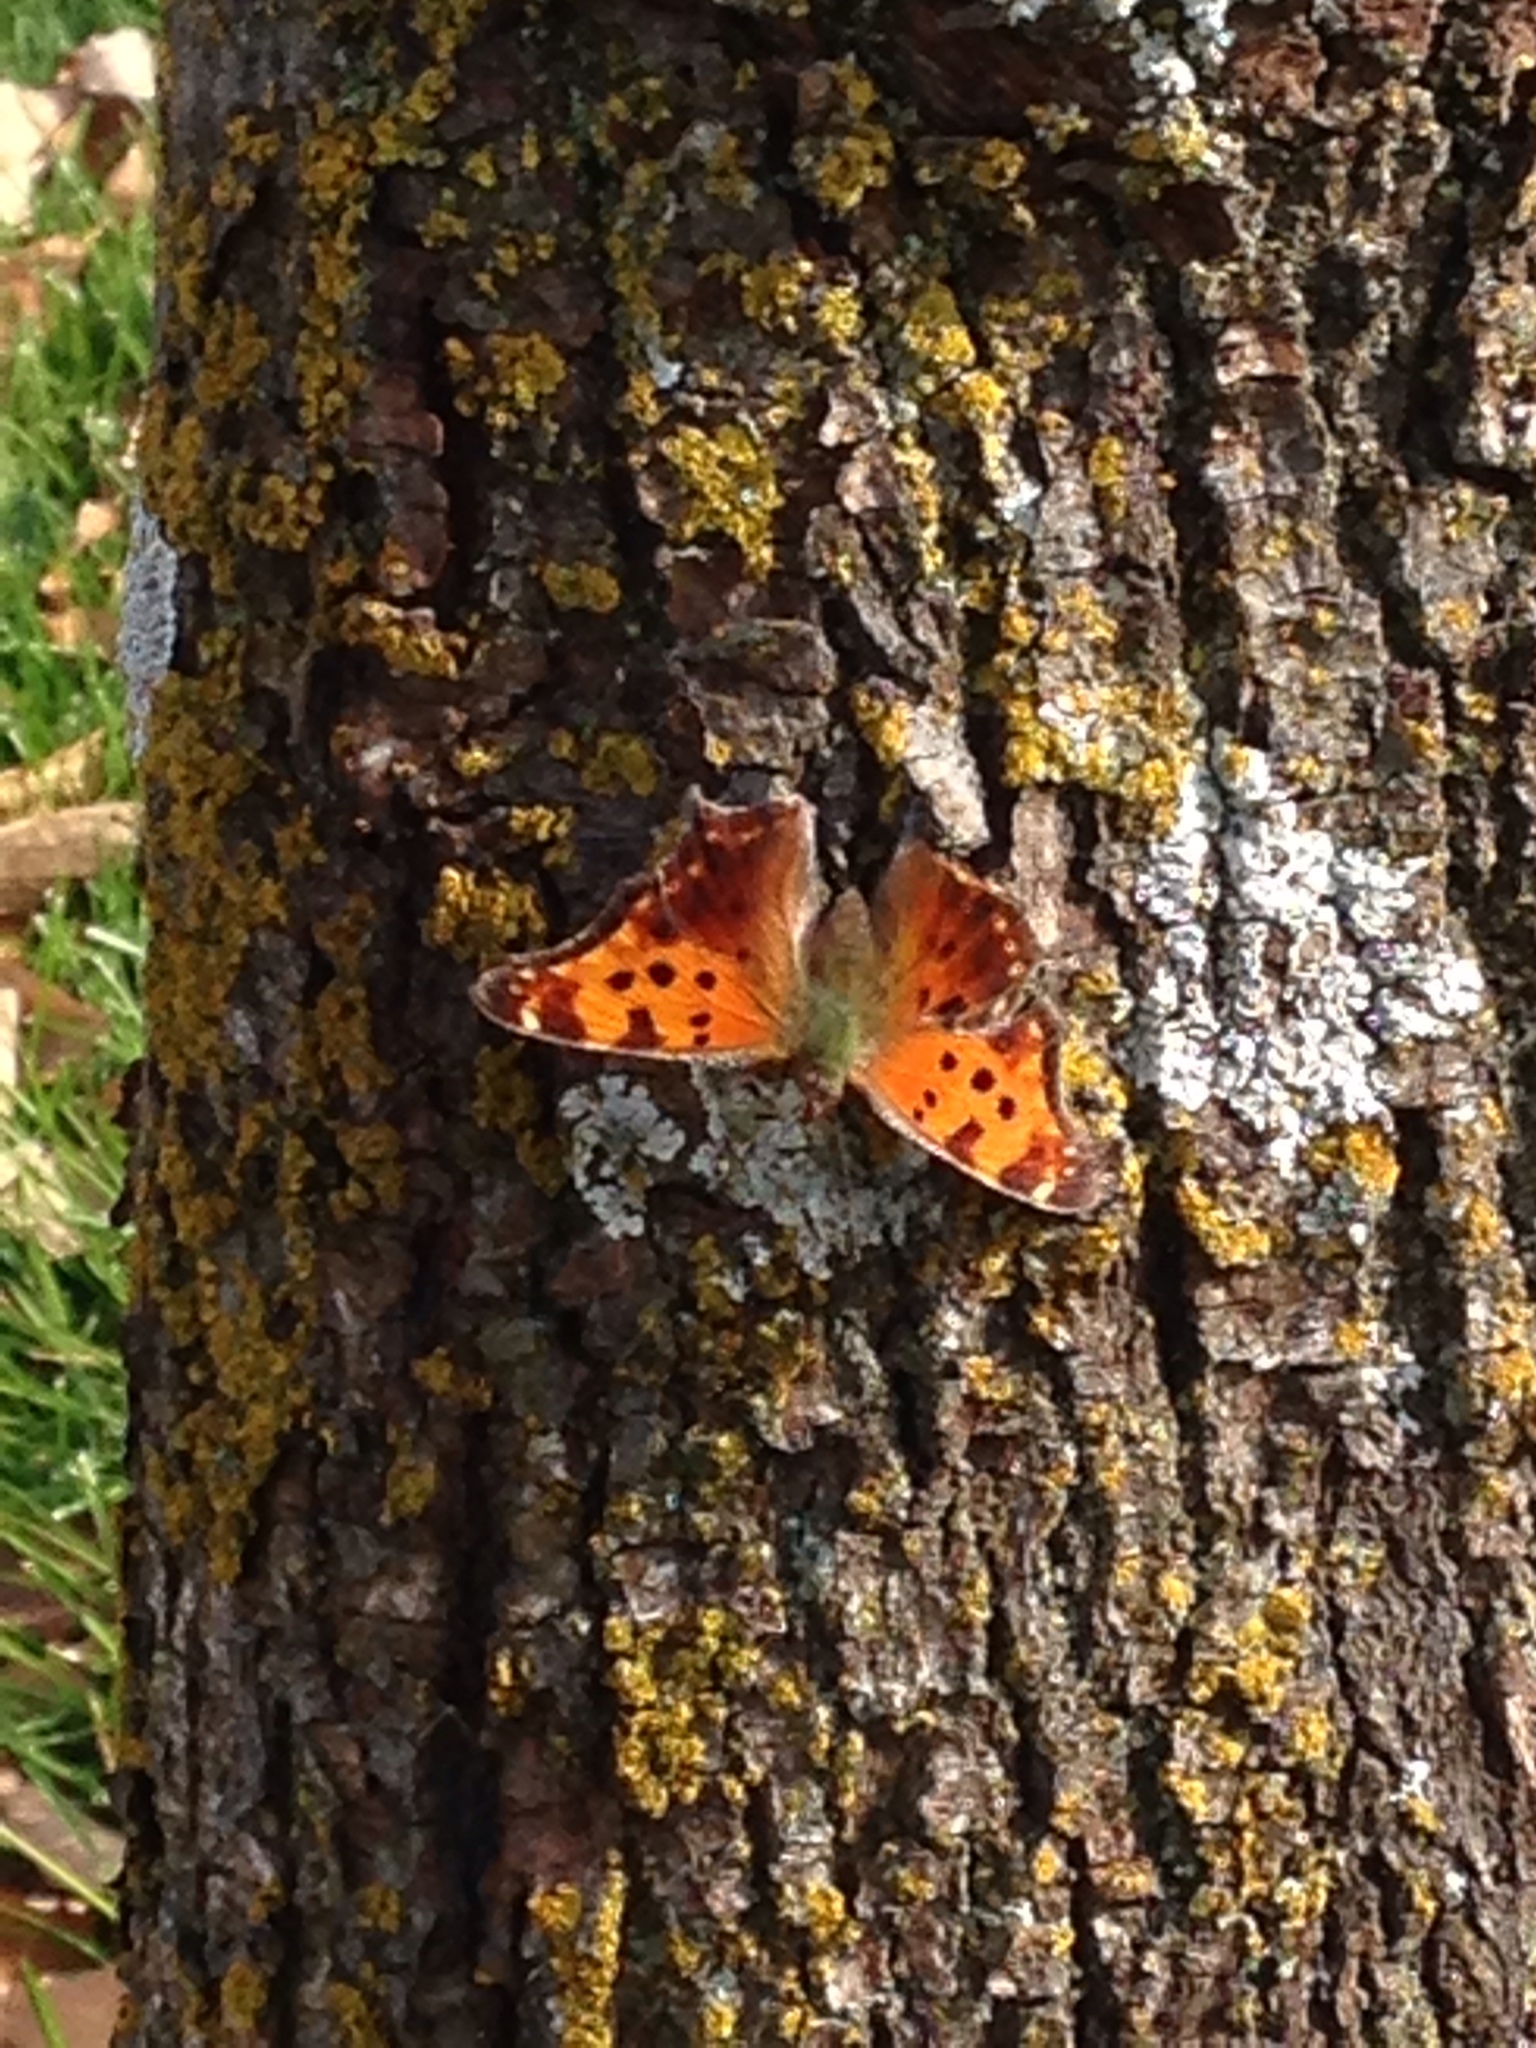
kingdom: Animalia
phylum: Arthropoda
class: Insecta
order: Lepidoptera
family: Nymphalidae
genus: Polygonia
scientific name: Polygonia comma
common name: Eastern comma
